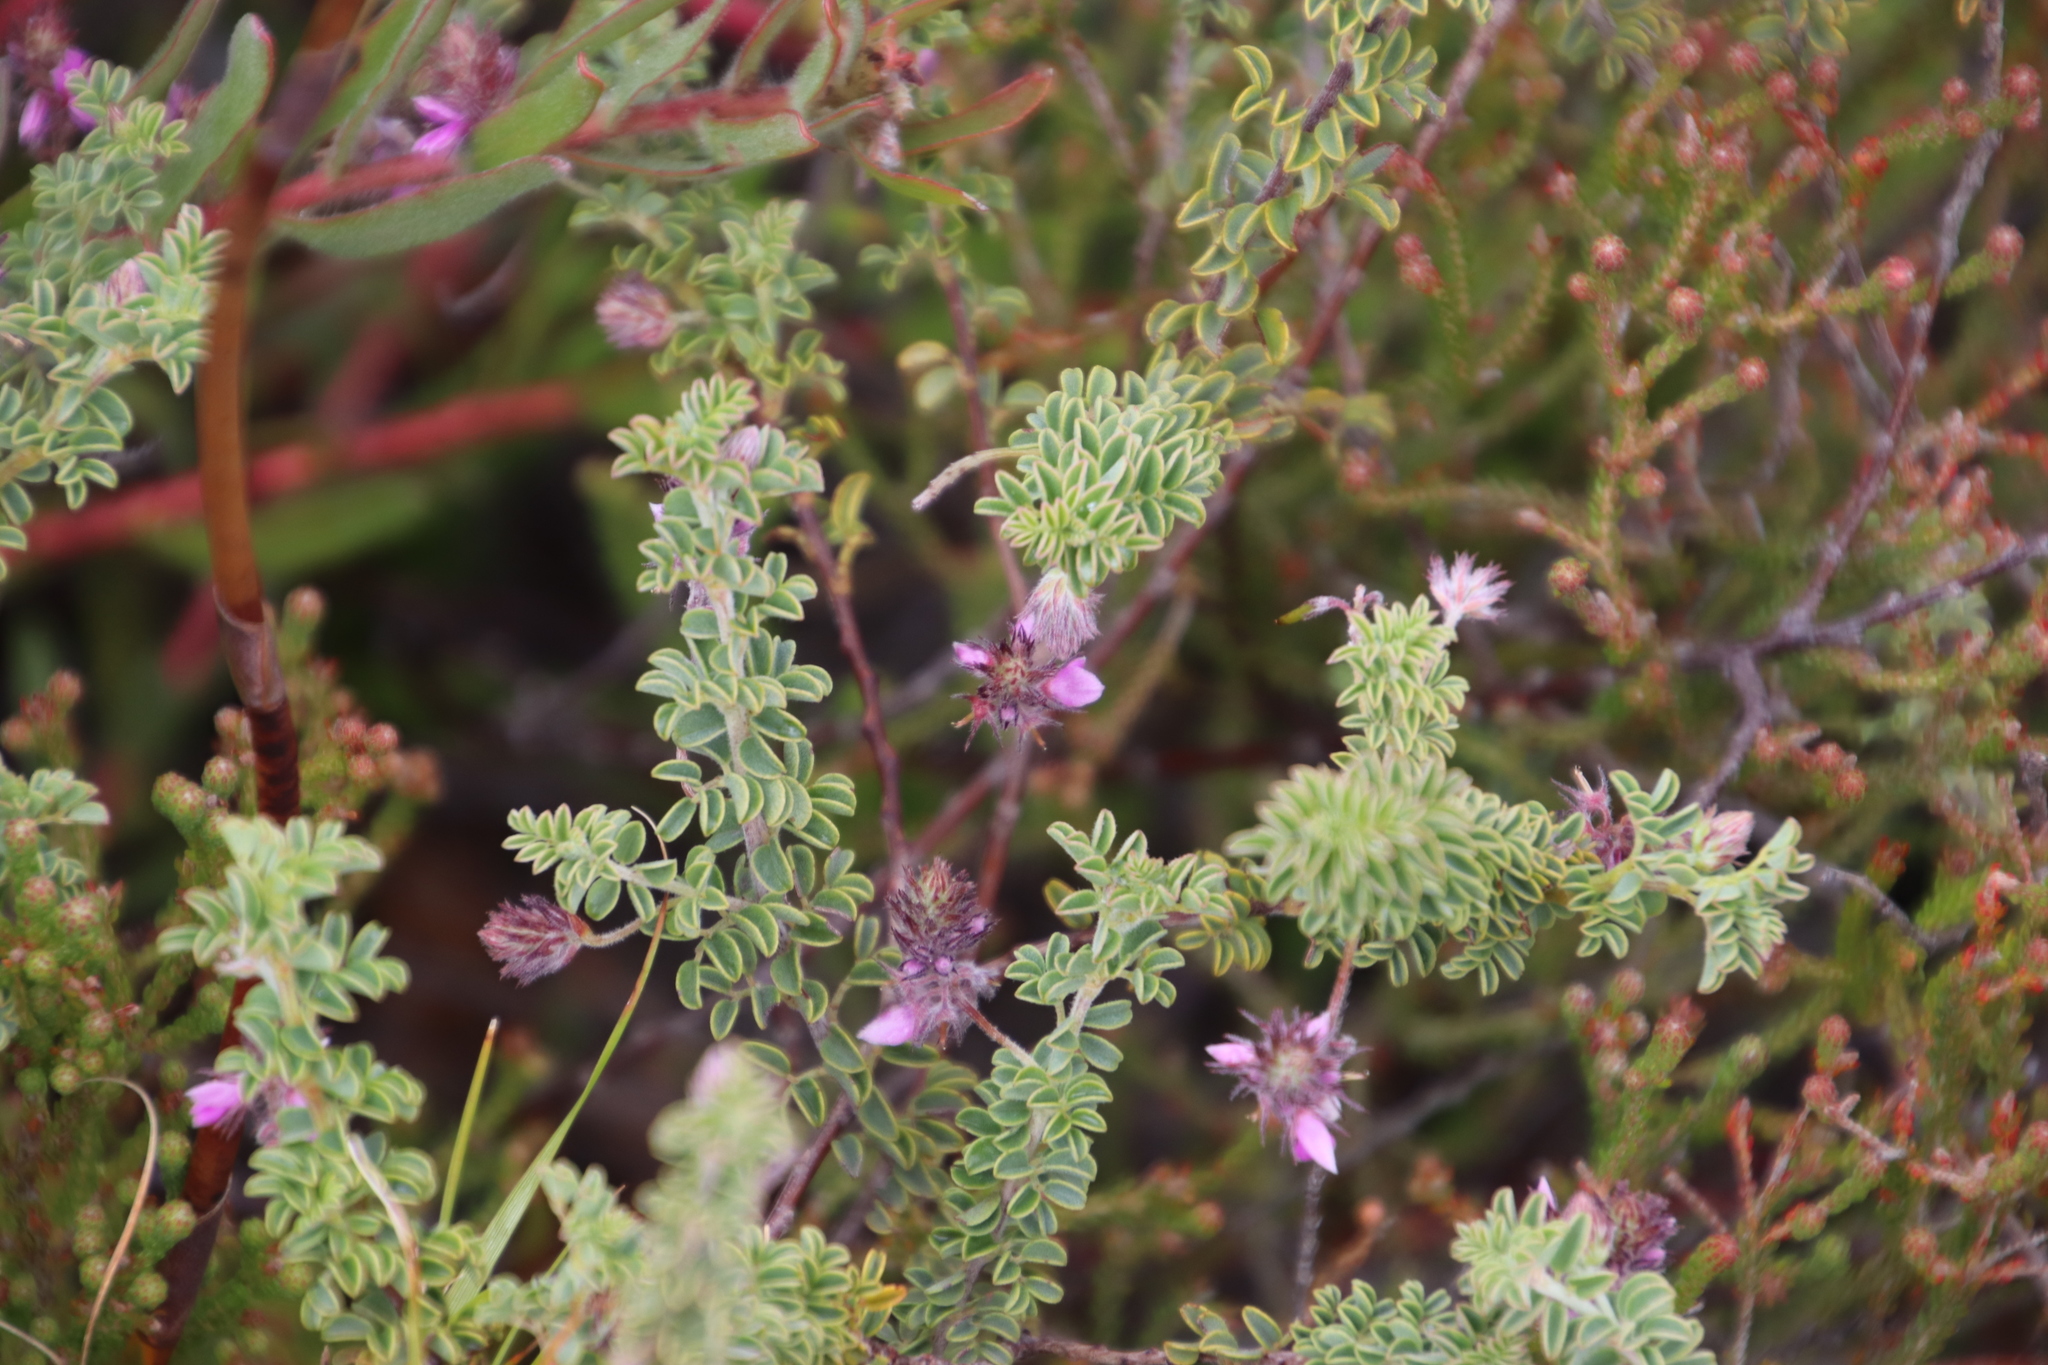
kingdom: Plantae
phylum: Tracheophyta
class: Magnoliopsida
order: Fabales
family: Fabaceae
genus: Indigofera
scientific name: Indigofera alopecuroides
